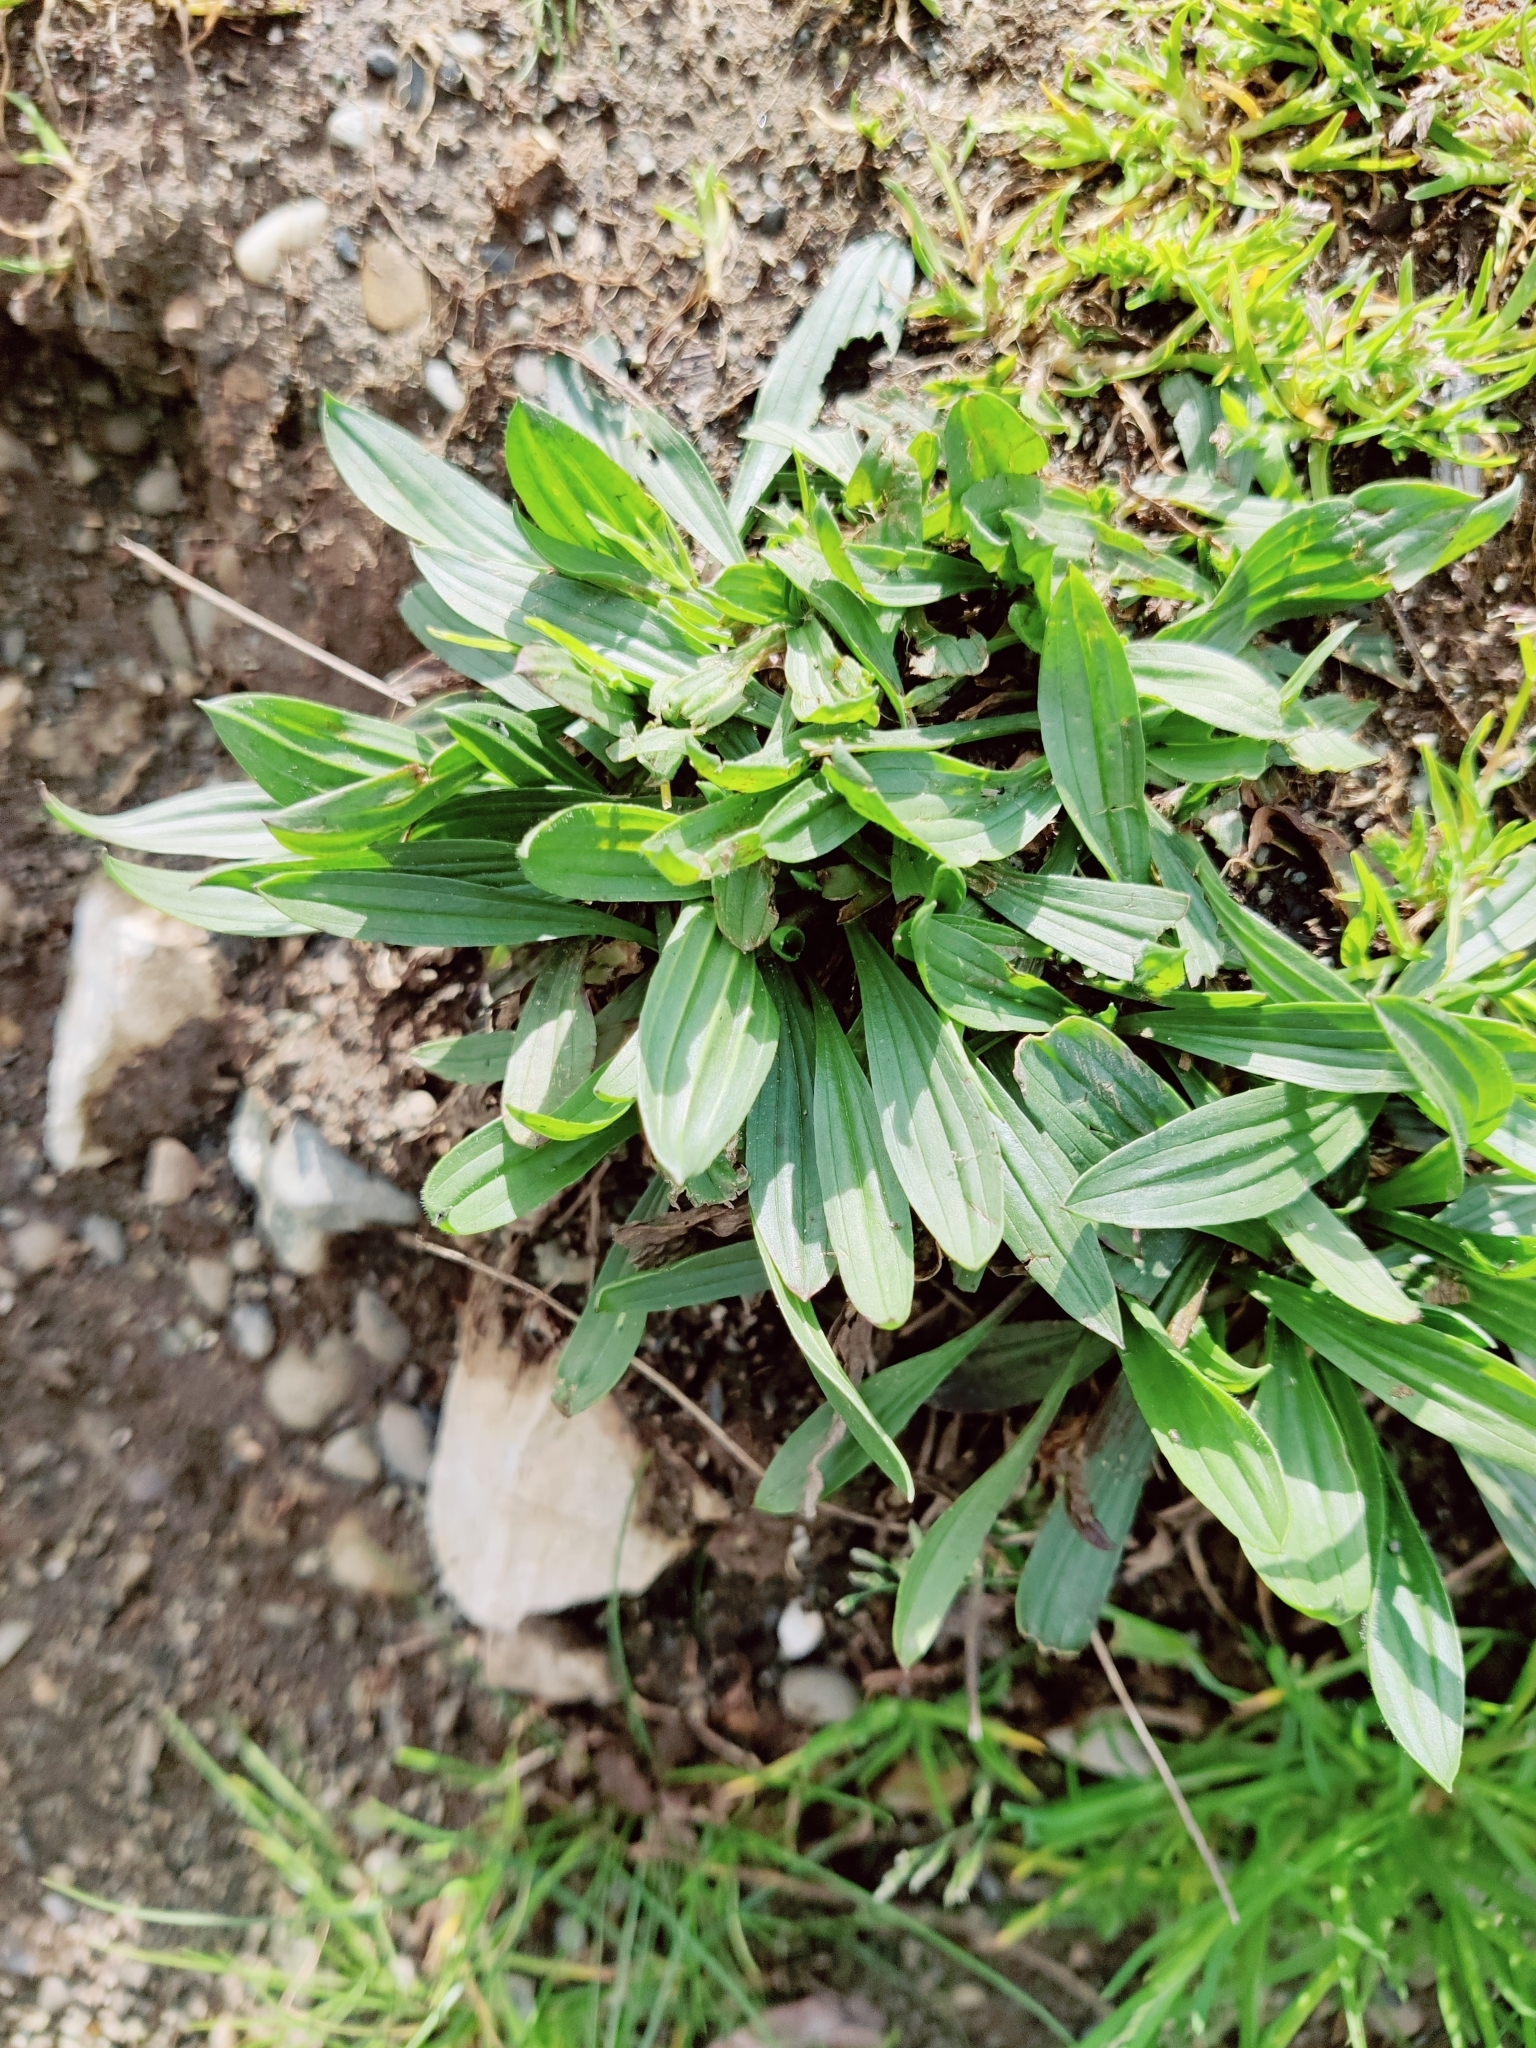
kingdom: Plantae
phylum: Tracheophyta
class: Magnoliopsida
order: Lamiales
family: Plantaginaceae
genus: Plantago
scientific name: Plantago lanceolata
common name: Ribwort plantain
